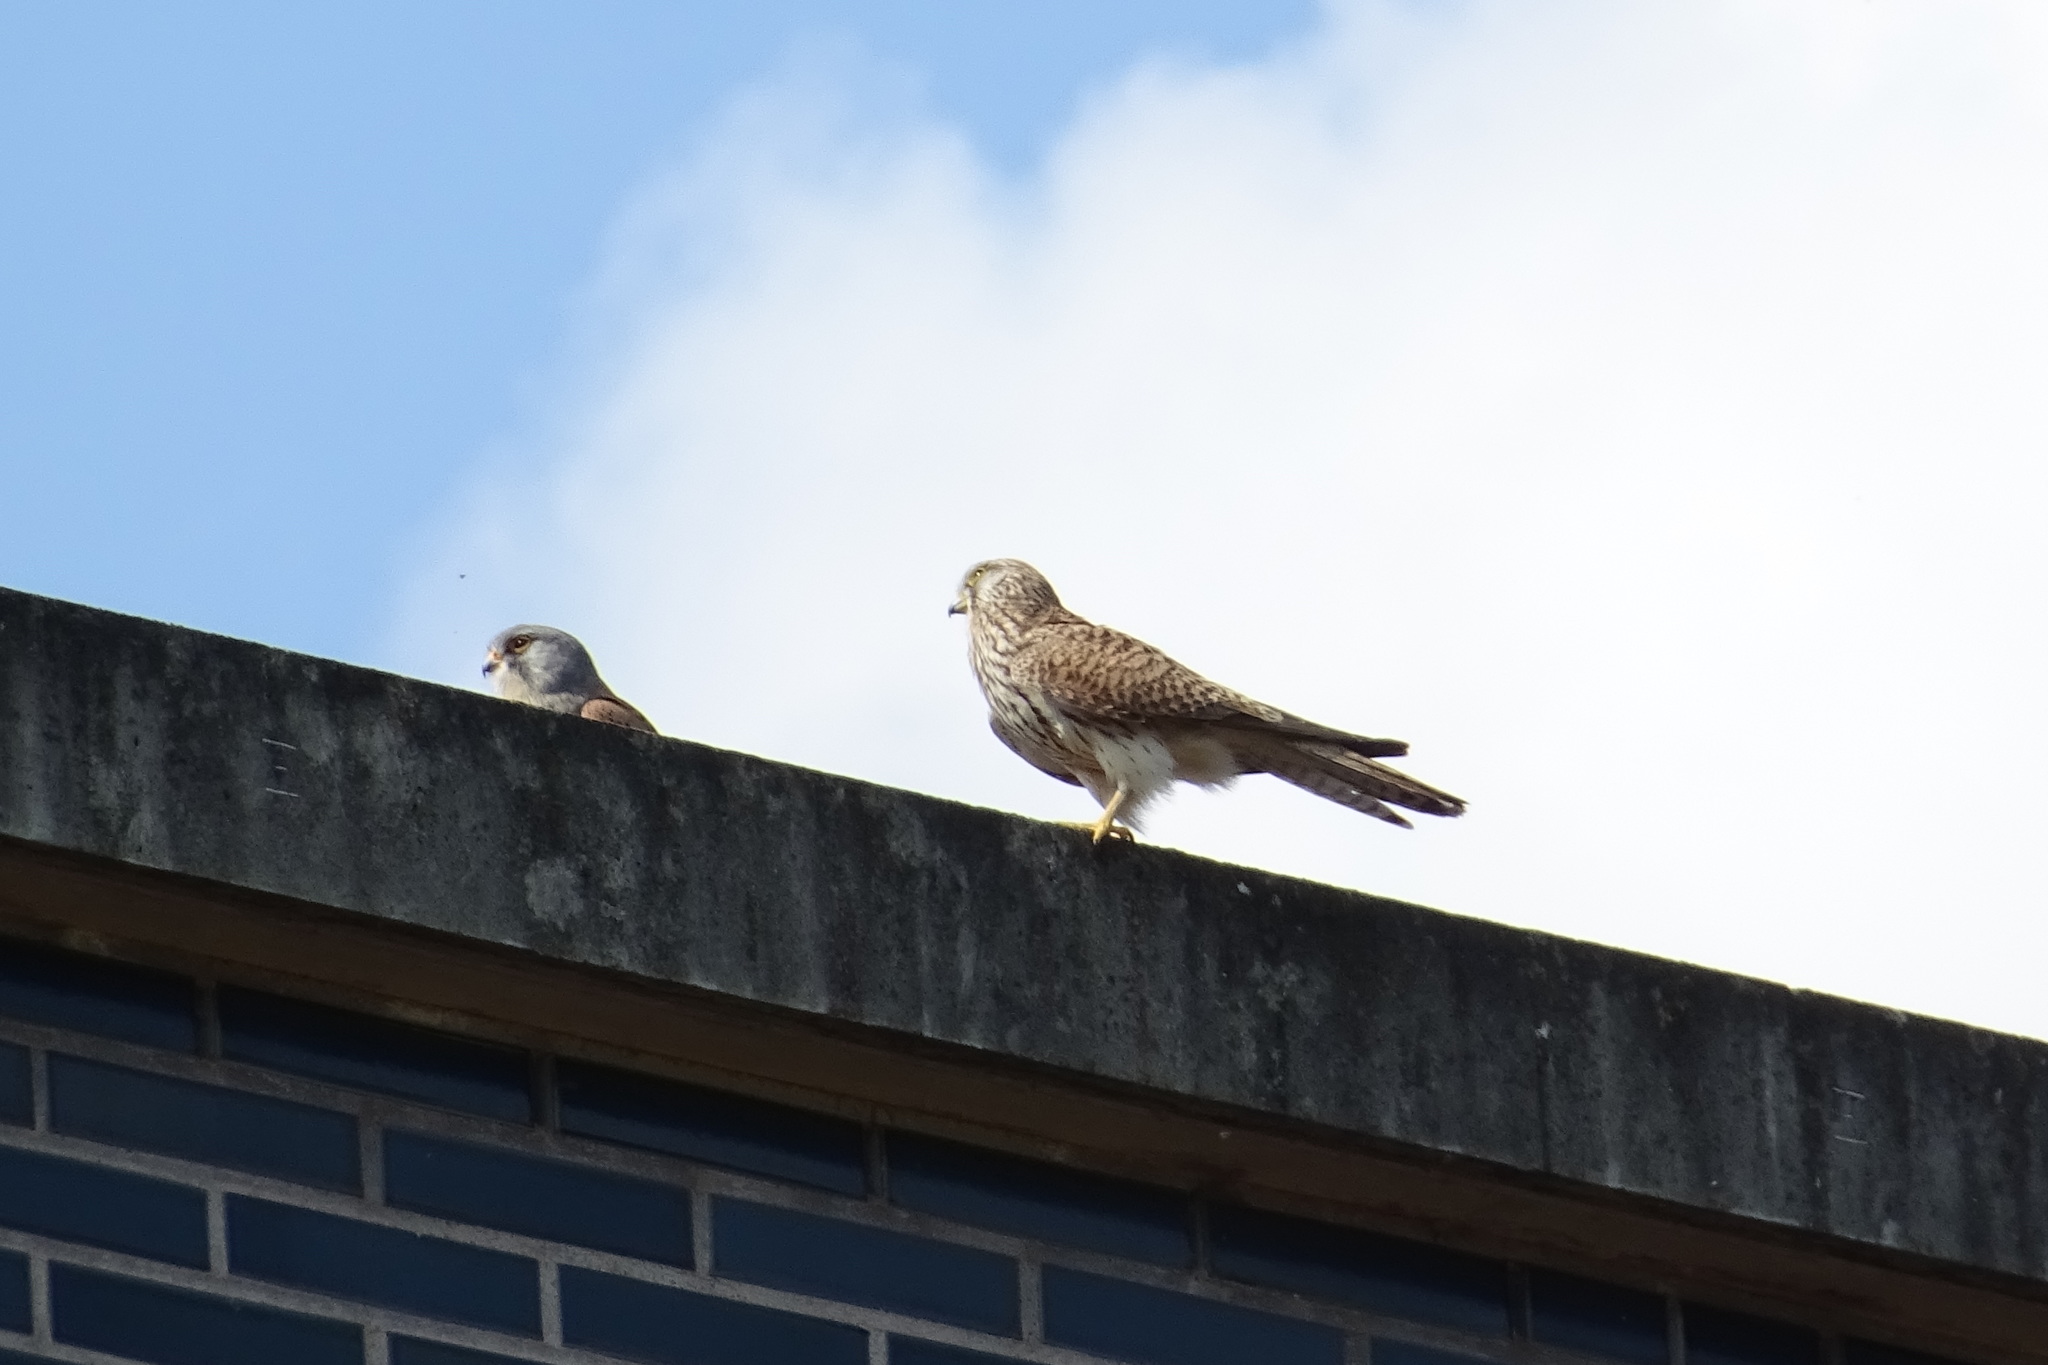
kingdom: Animalia
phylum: Chordata
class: Aves
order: Falconiformes
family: Falconidae
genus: Falco
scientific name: Falco tinnunculus
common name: Common kestrel
